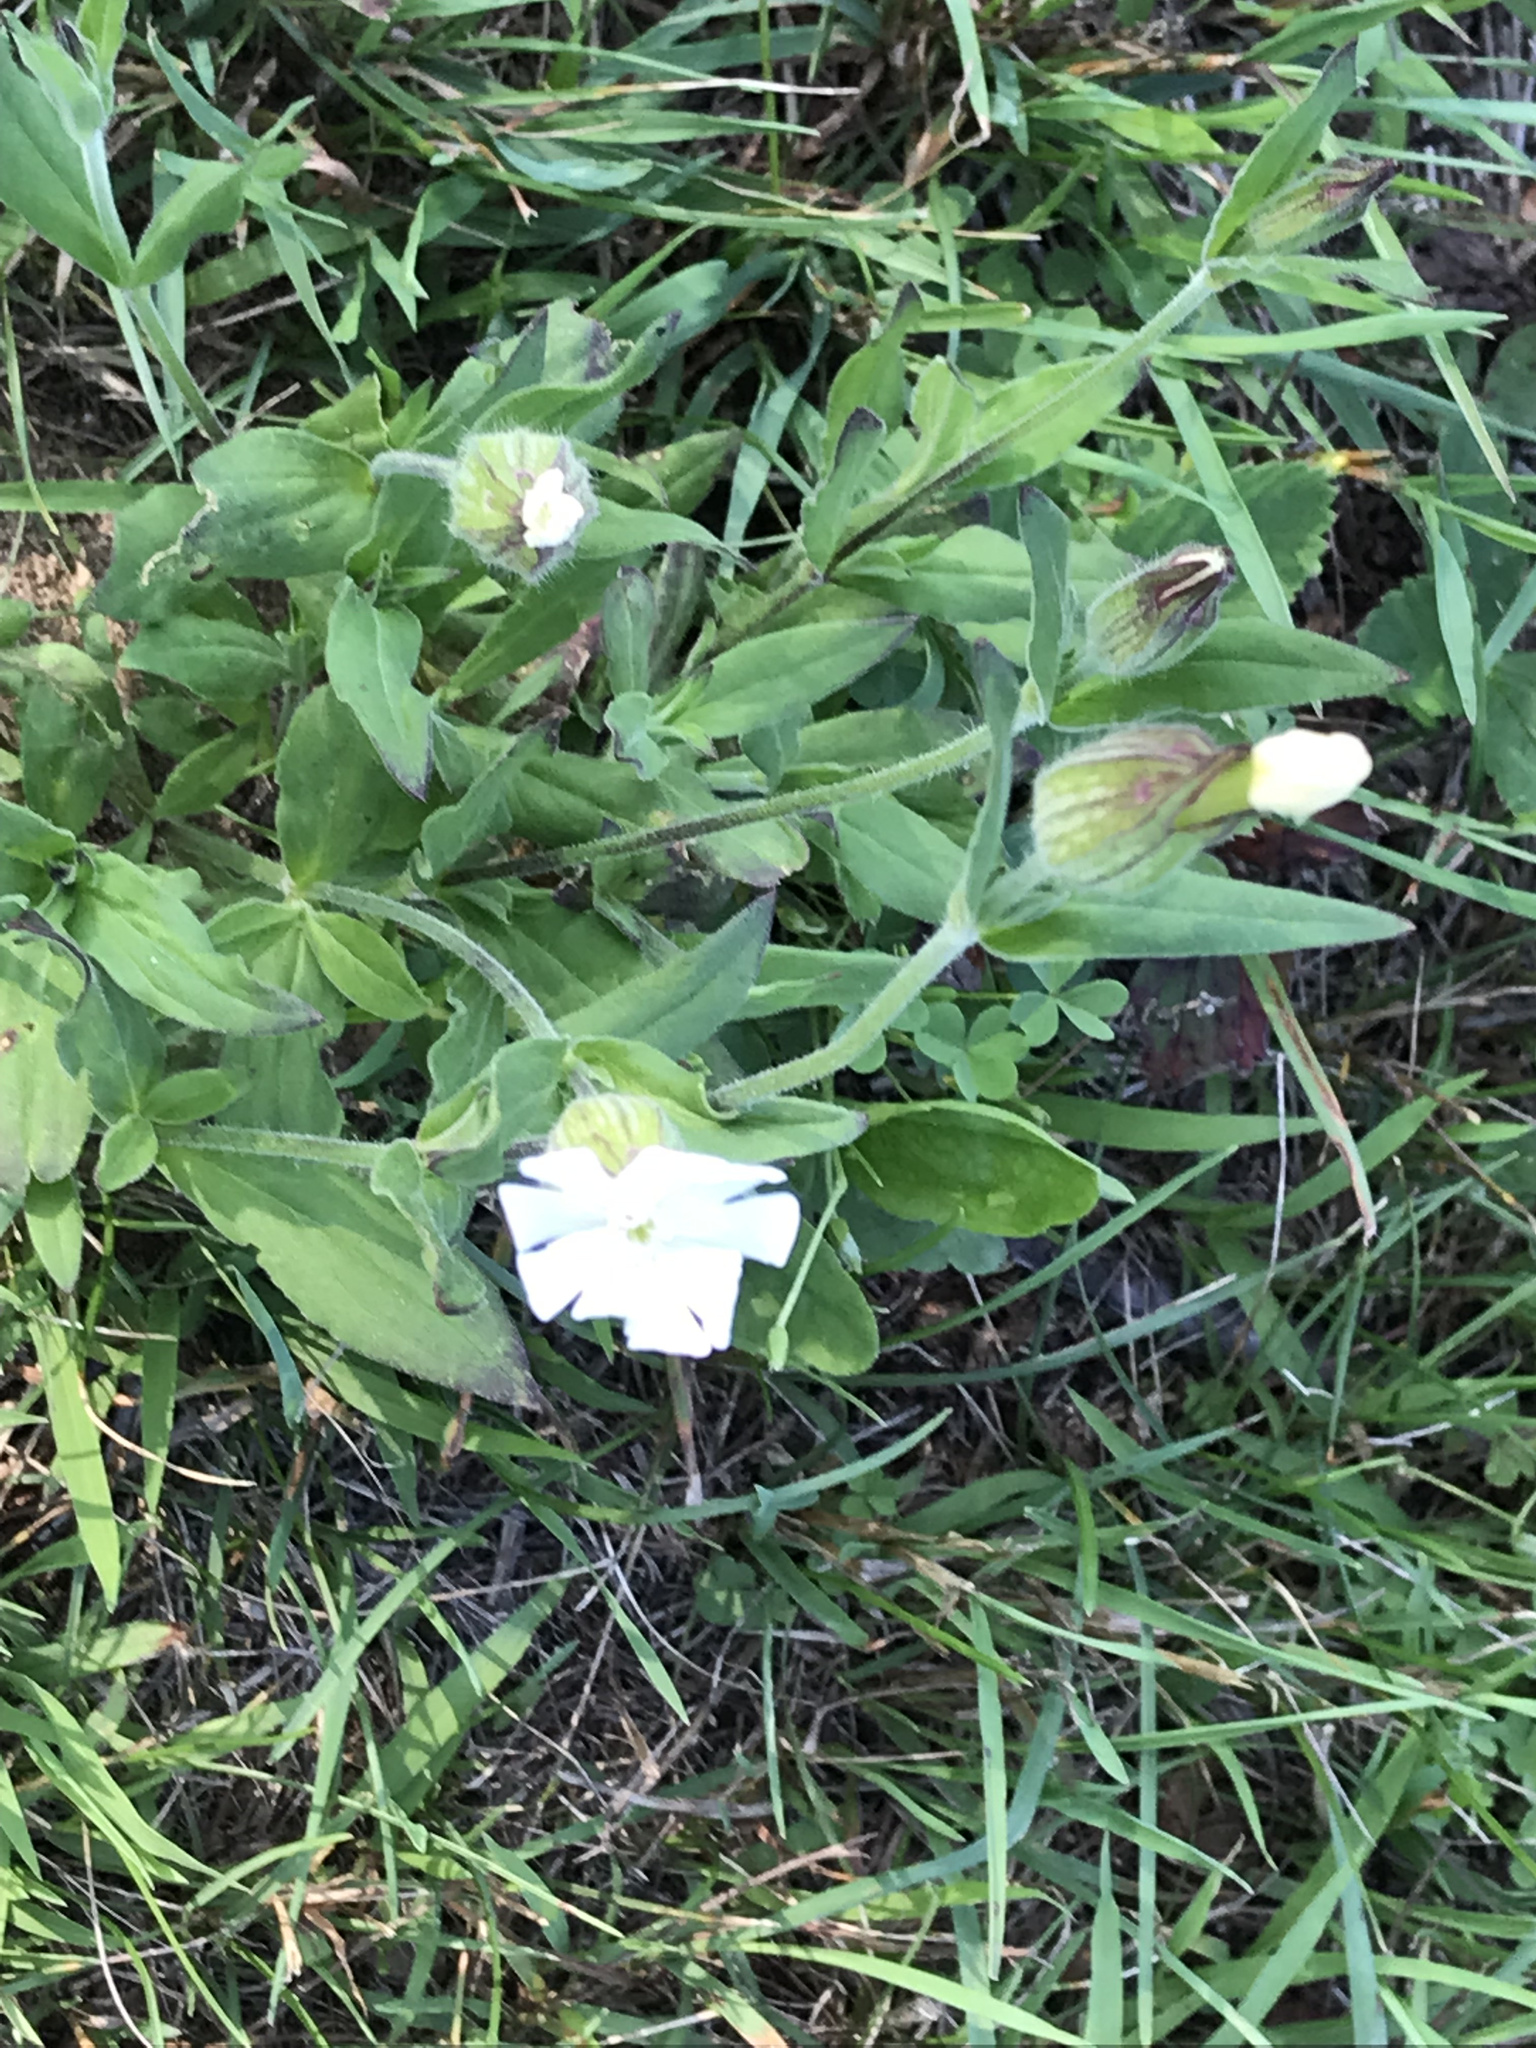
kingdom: Plantae
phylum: Tracheophyta
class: Magnoliopsida
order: Caryophyllales
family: Caryophyllaceae
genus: Silene
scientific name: Silene latifolia
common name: White campion
